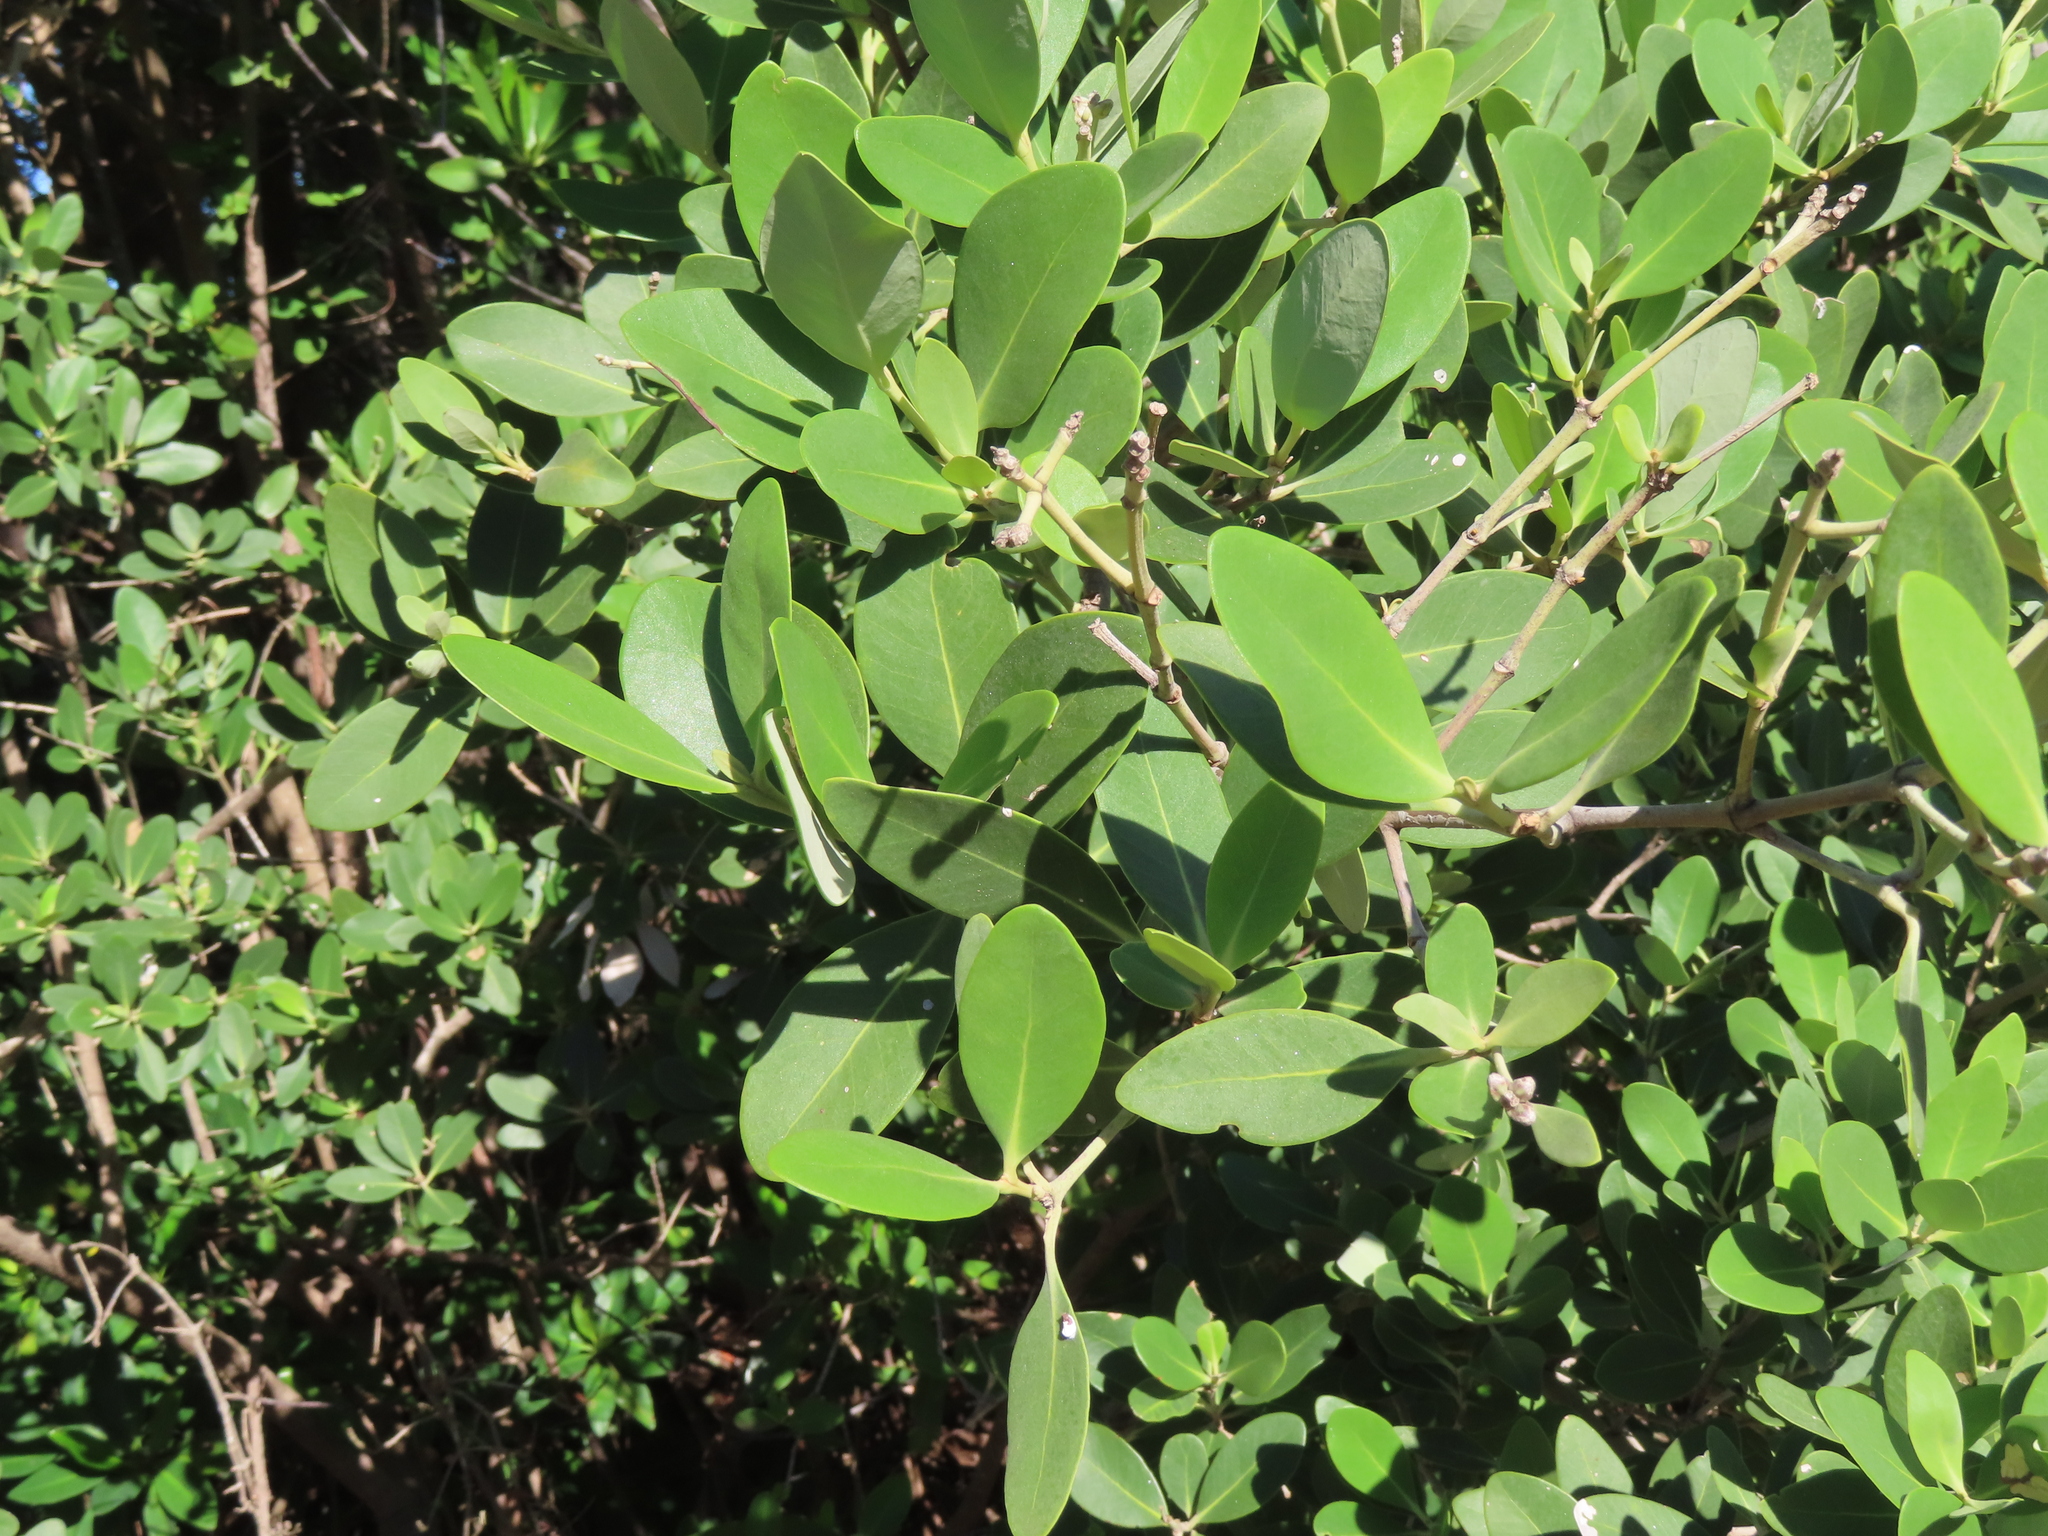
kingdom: Plantae
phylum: Tracheophyta
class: Magnoliopsida
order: Lamiales
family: Acanthaceae
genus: Avicennia
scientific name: Avicennia germinans
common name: Black mangrove
